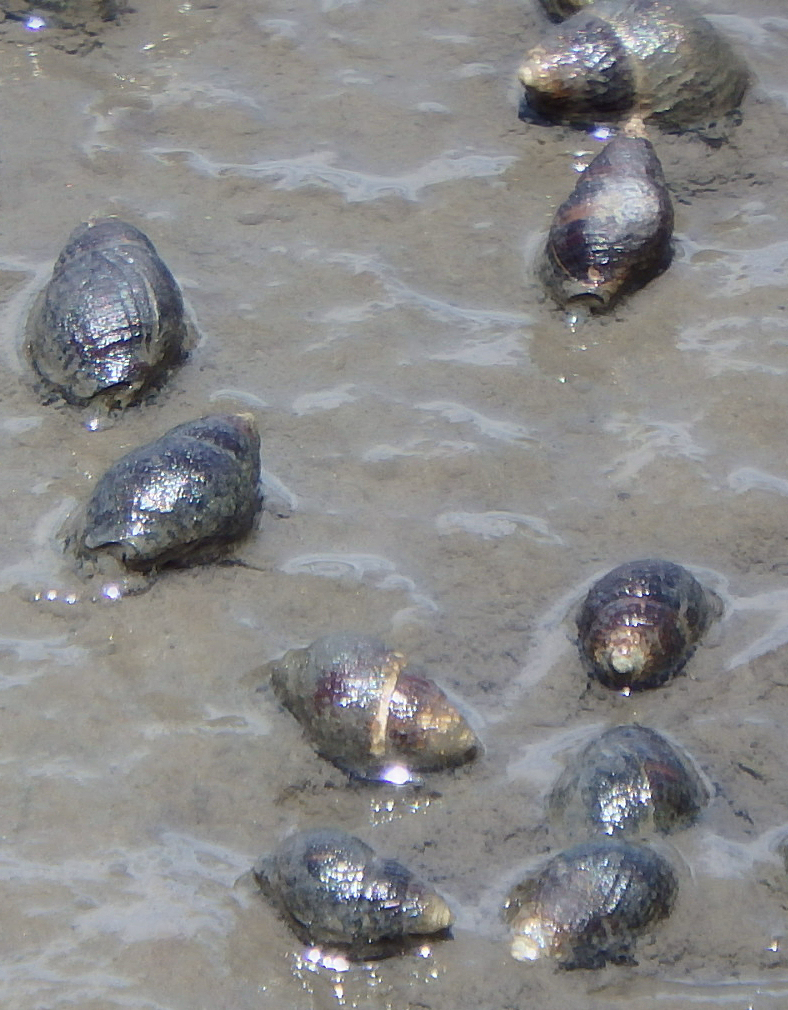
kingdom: Animalia
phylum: Mollusca
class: Gastropoda
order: Neogastropoda
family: Nassariidae
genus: Ilyanassa
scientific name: Ilyanassa obsoleta
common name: Eastern mudsnail
